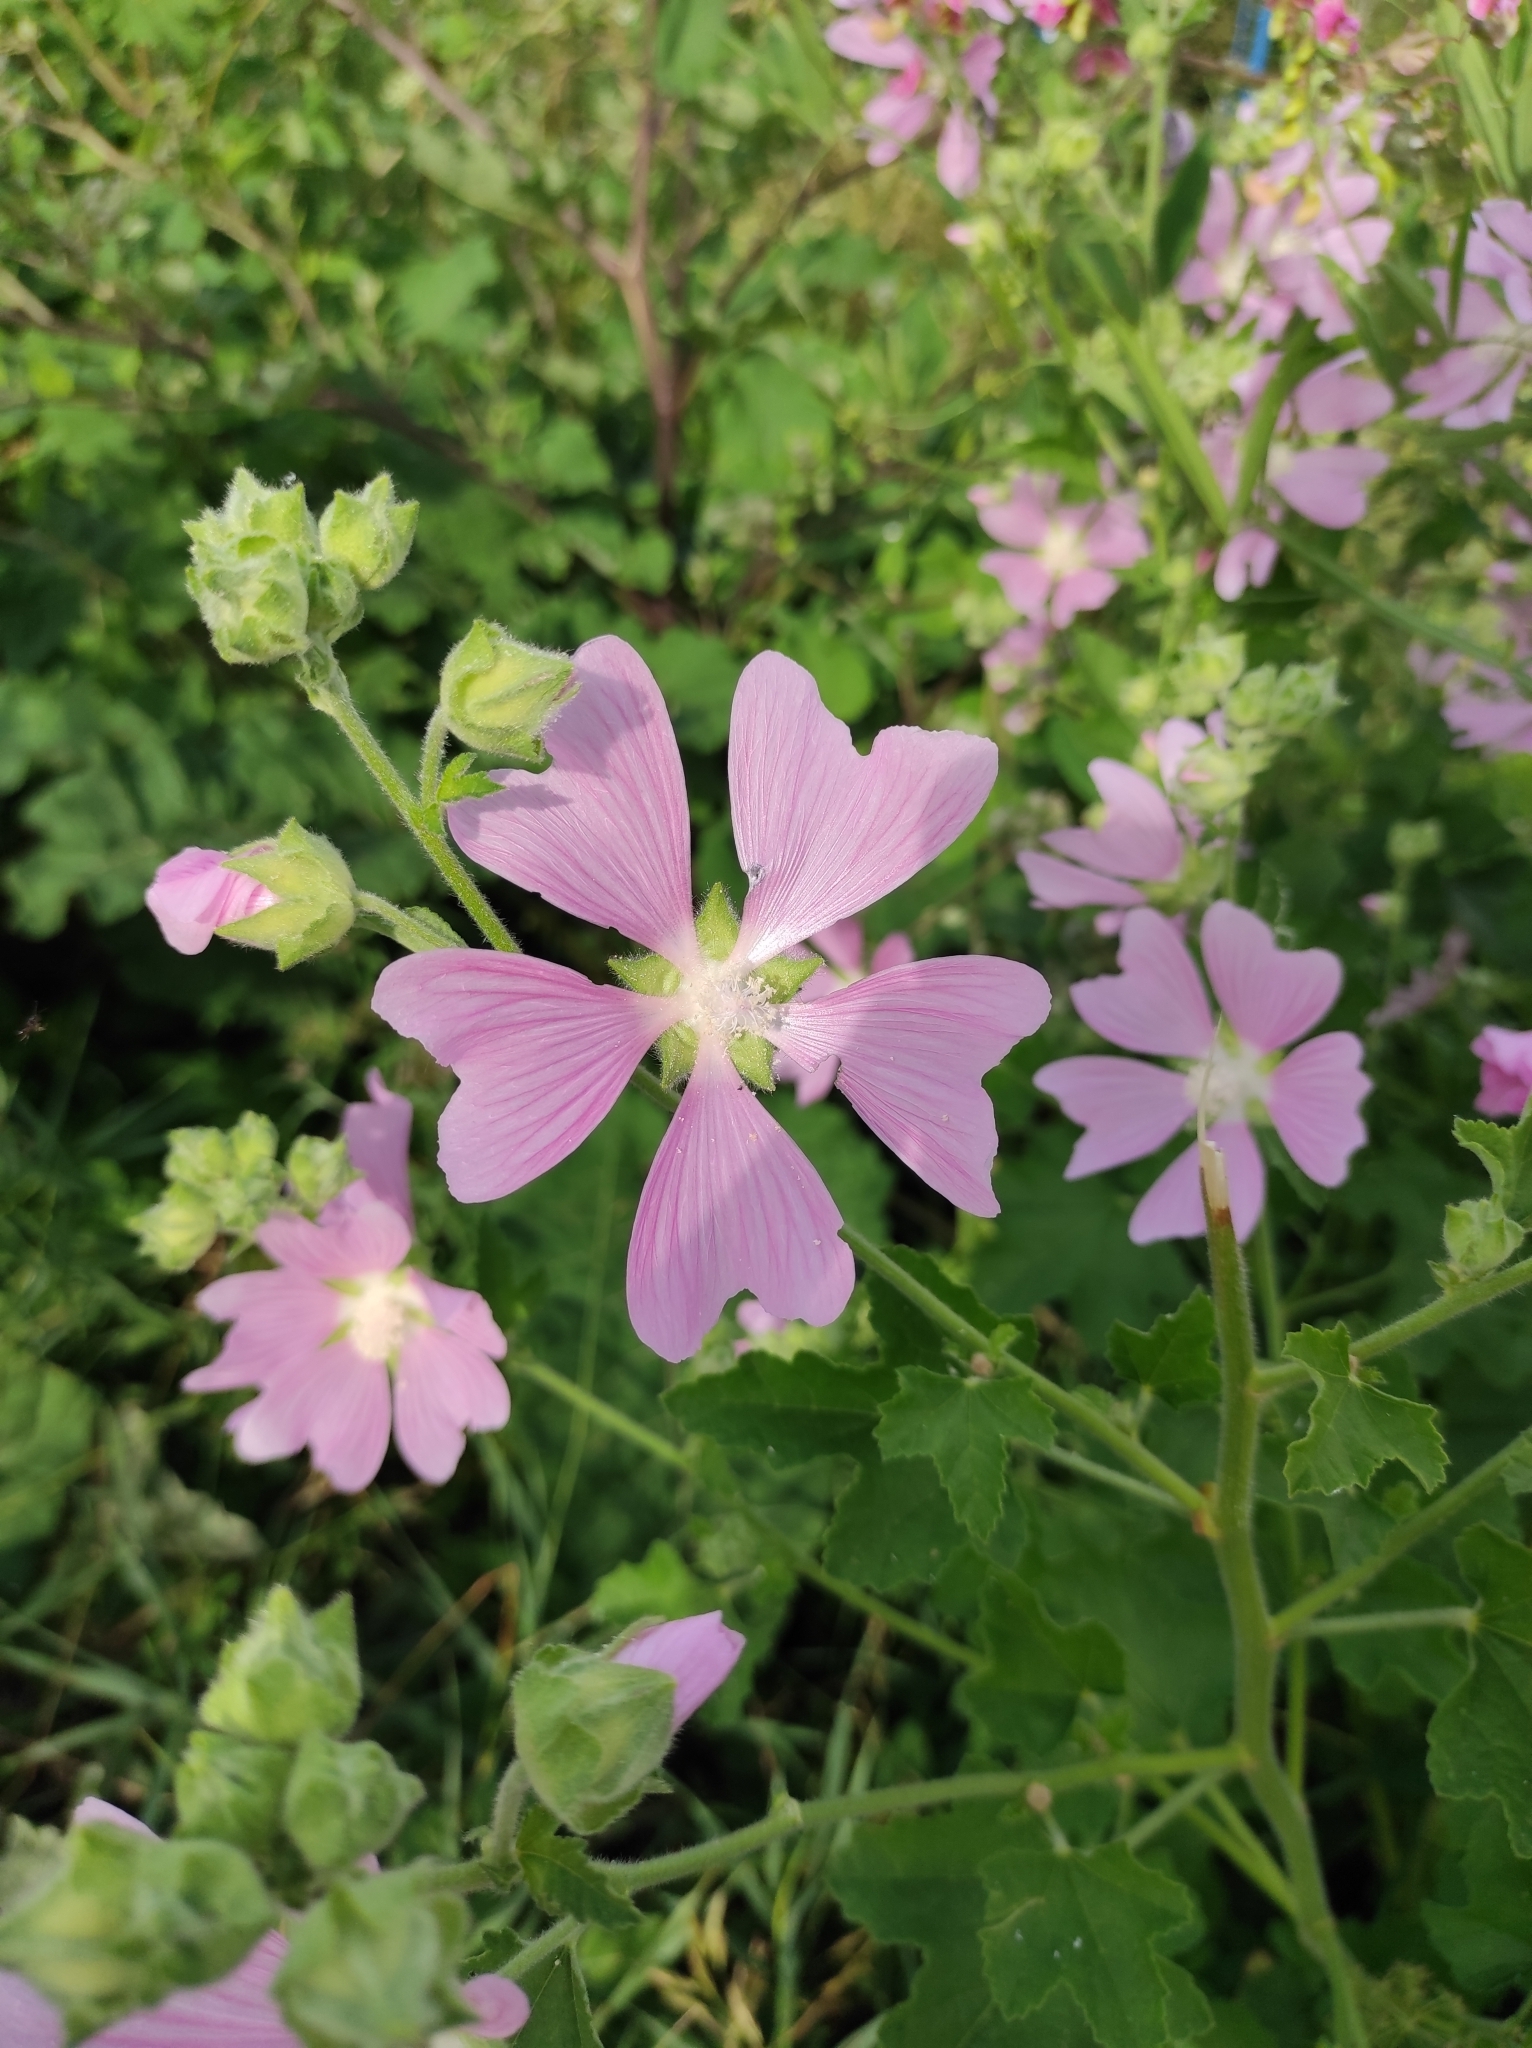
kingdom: Plantae
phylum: Tracheophyta
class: Magnoliopsida
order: Malvales
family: Malvaceae
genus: Malva
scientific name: Malva thuringiaca
